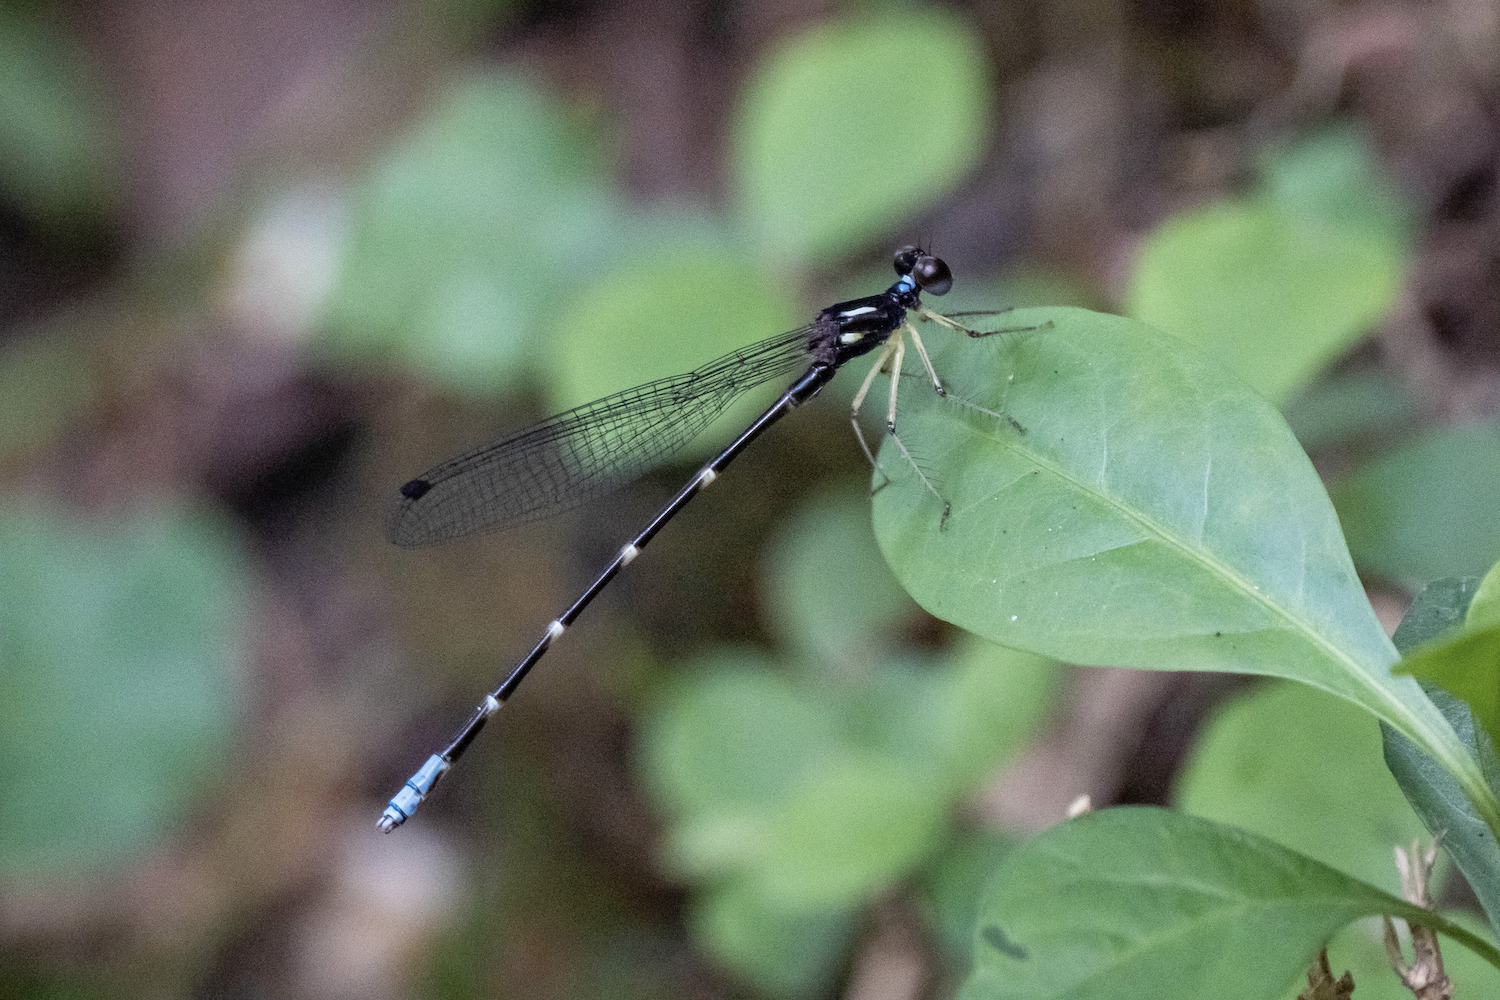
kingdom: Animalia
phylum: Arthropoda
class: Insecta
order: Odonata
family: Platystictidae
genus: Sinosticta
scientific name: Sinosticta ogatai
